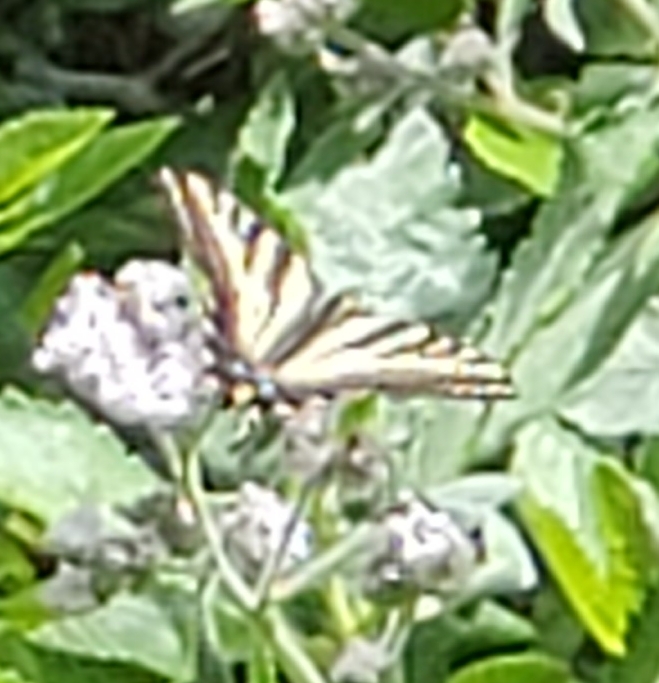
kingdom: Animalia
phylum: Arthropoda
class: Insecta
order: Lepidoptera
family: Papilionidae
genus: Papilio
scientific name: Papilio rutulus
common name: Western tiger swallowtail
